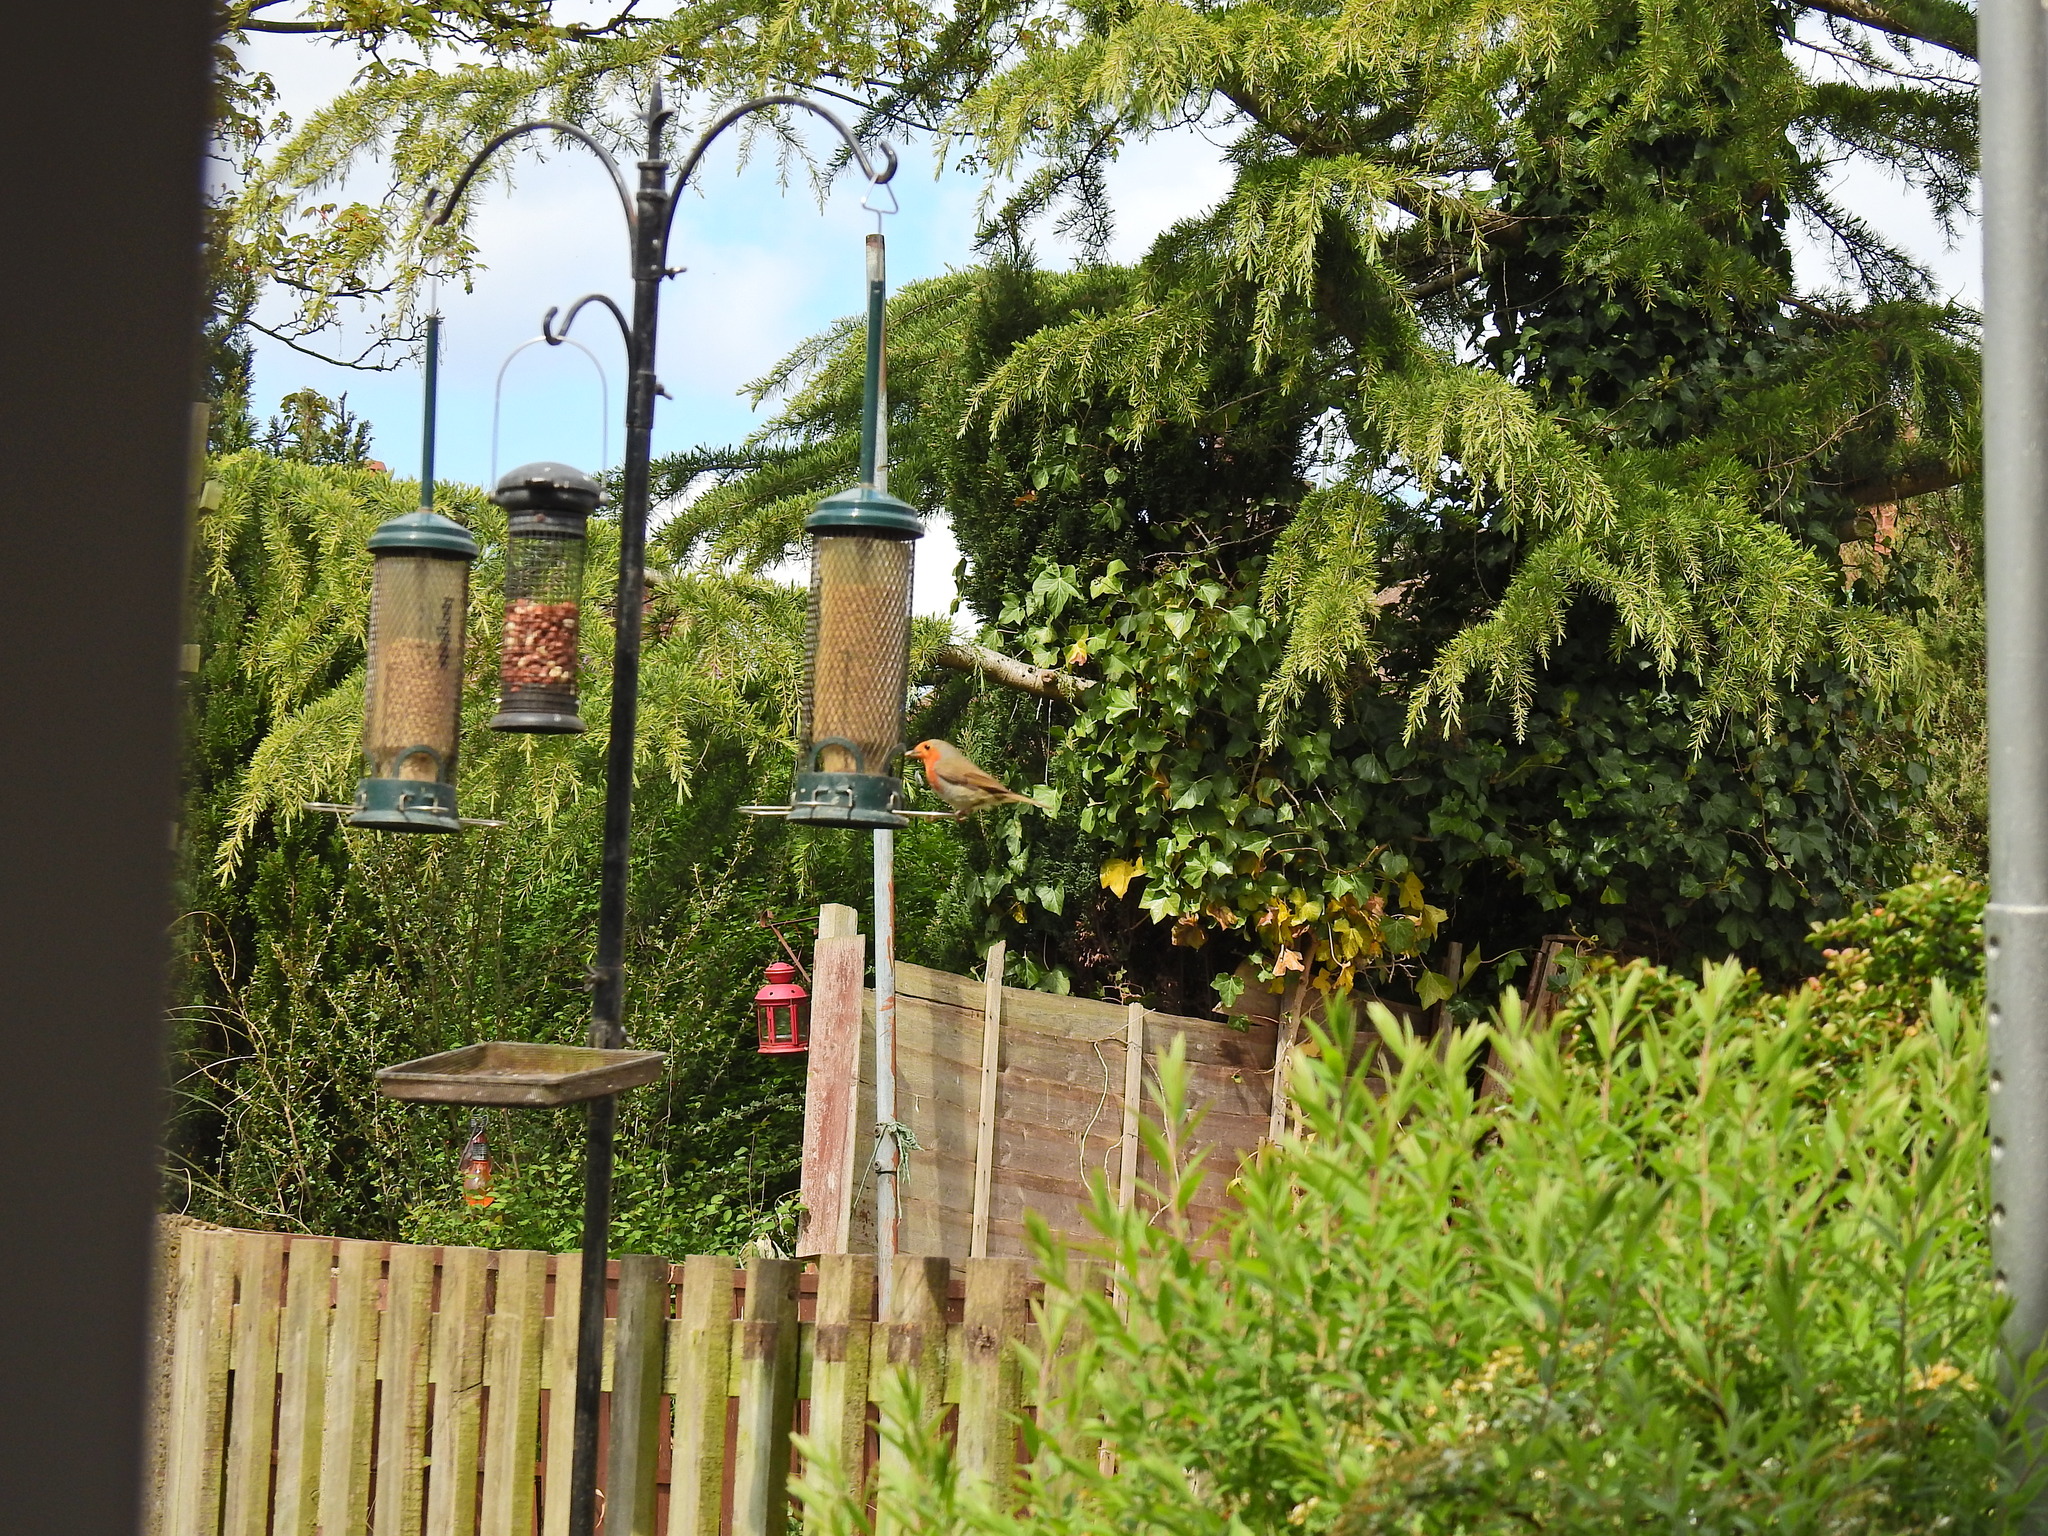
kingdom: Animalia
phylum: Chordata
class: Aves
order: Passeriformes
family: Muscicapidae
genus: Erithacus
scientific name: Erithacus rubecula
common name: European robin
